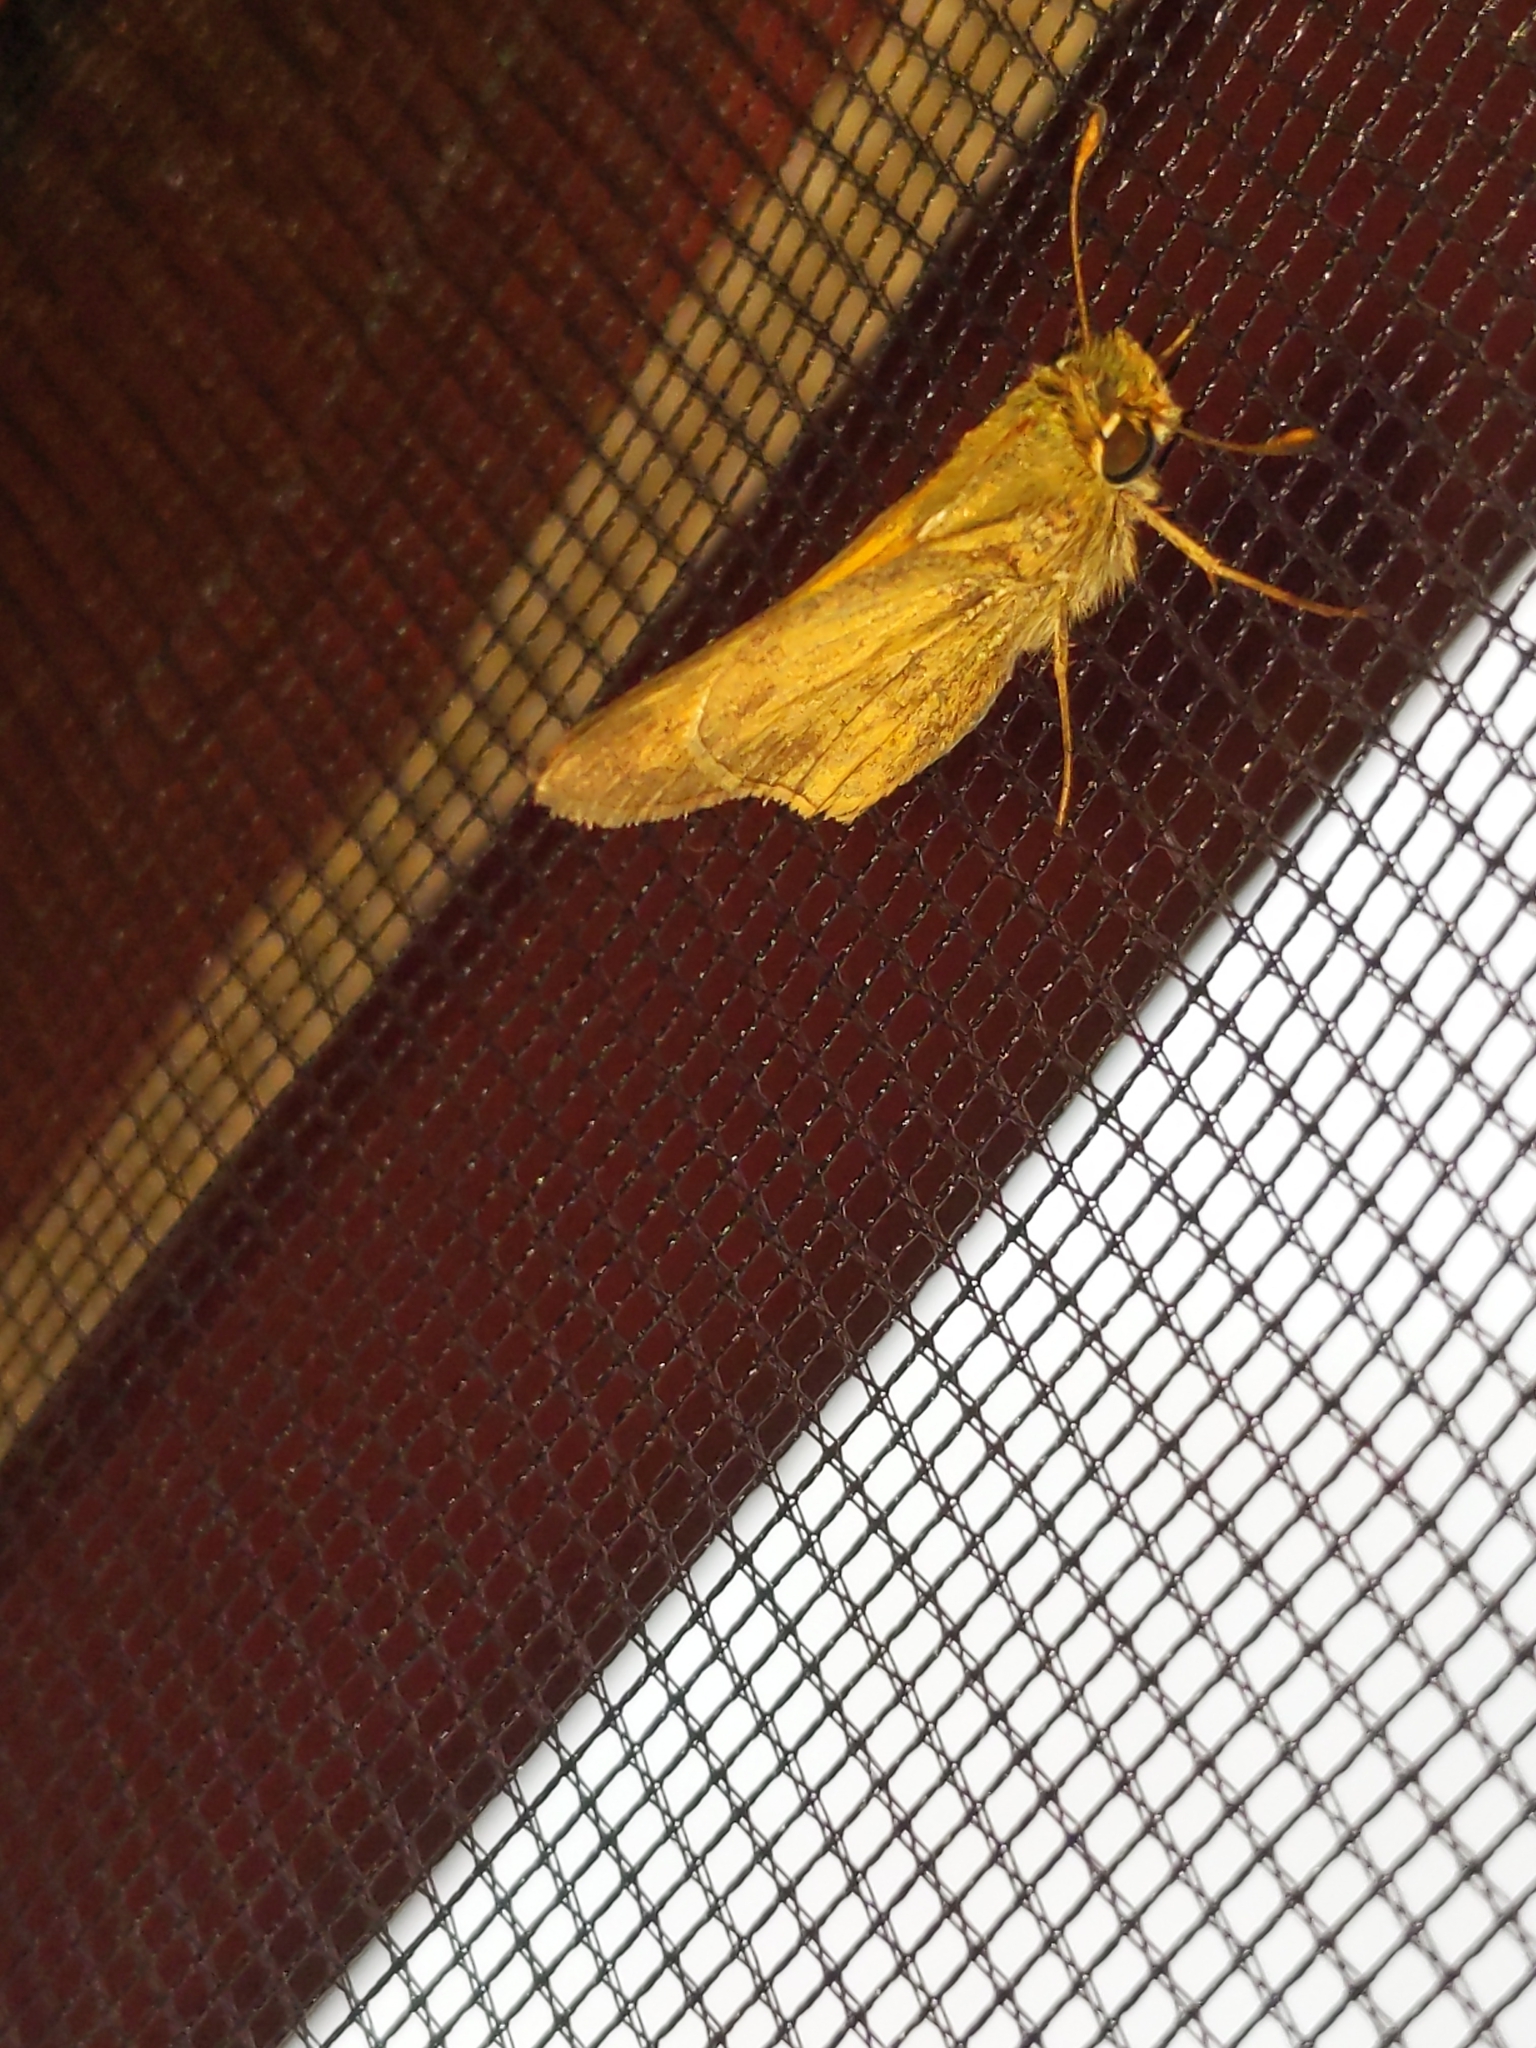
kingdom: Animalia
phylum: Arthropoda
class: Insecta
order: Lepidoptera
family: Hesperiidae
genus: Atalopedes
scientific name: Atalopedes
